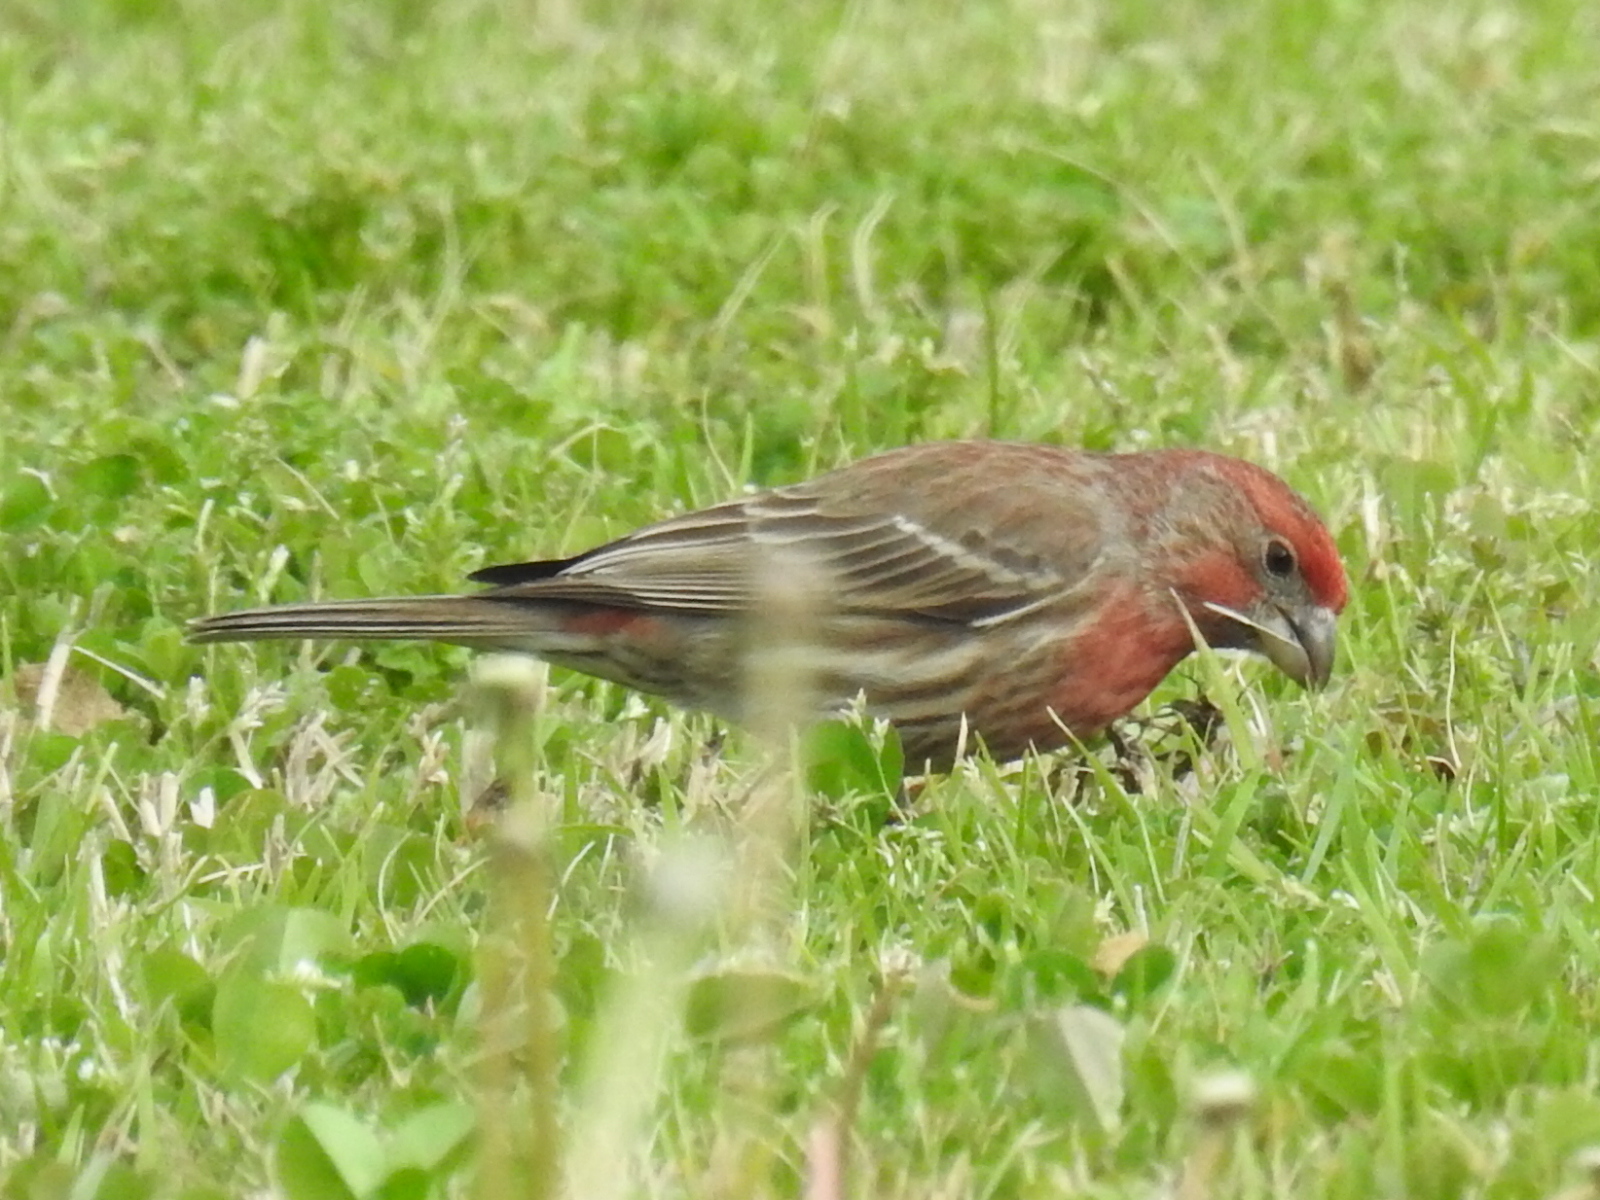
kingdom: Animalia
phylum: Chordata
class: Aves
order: Passeriformes
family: Fringillidae
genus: Haemorhous
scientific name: Haemorhous mexicanus
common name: House finch
